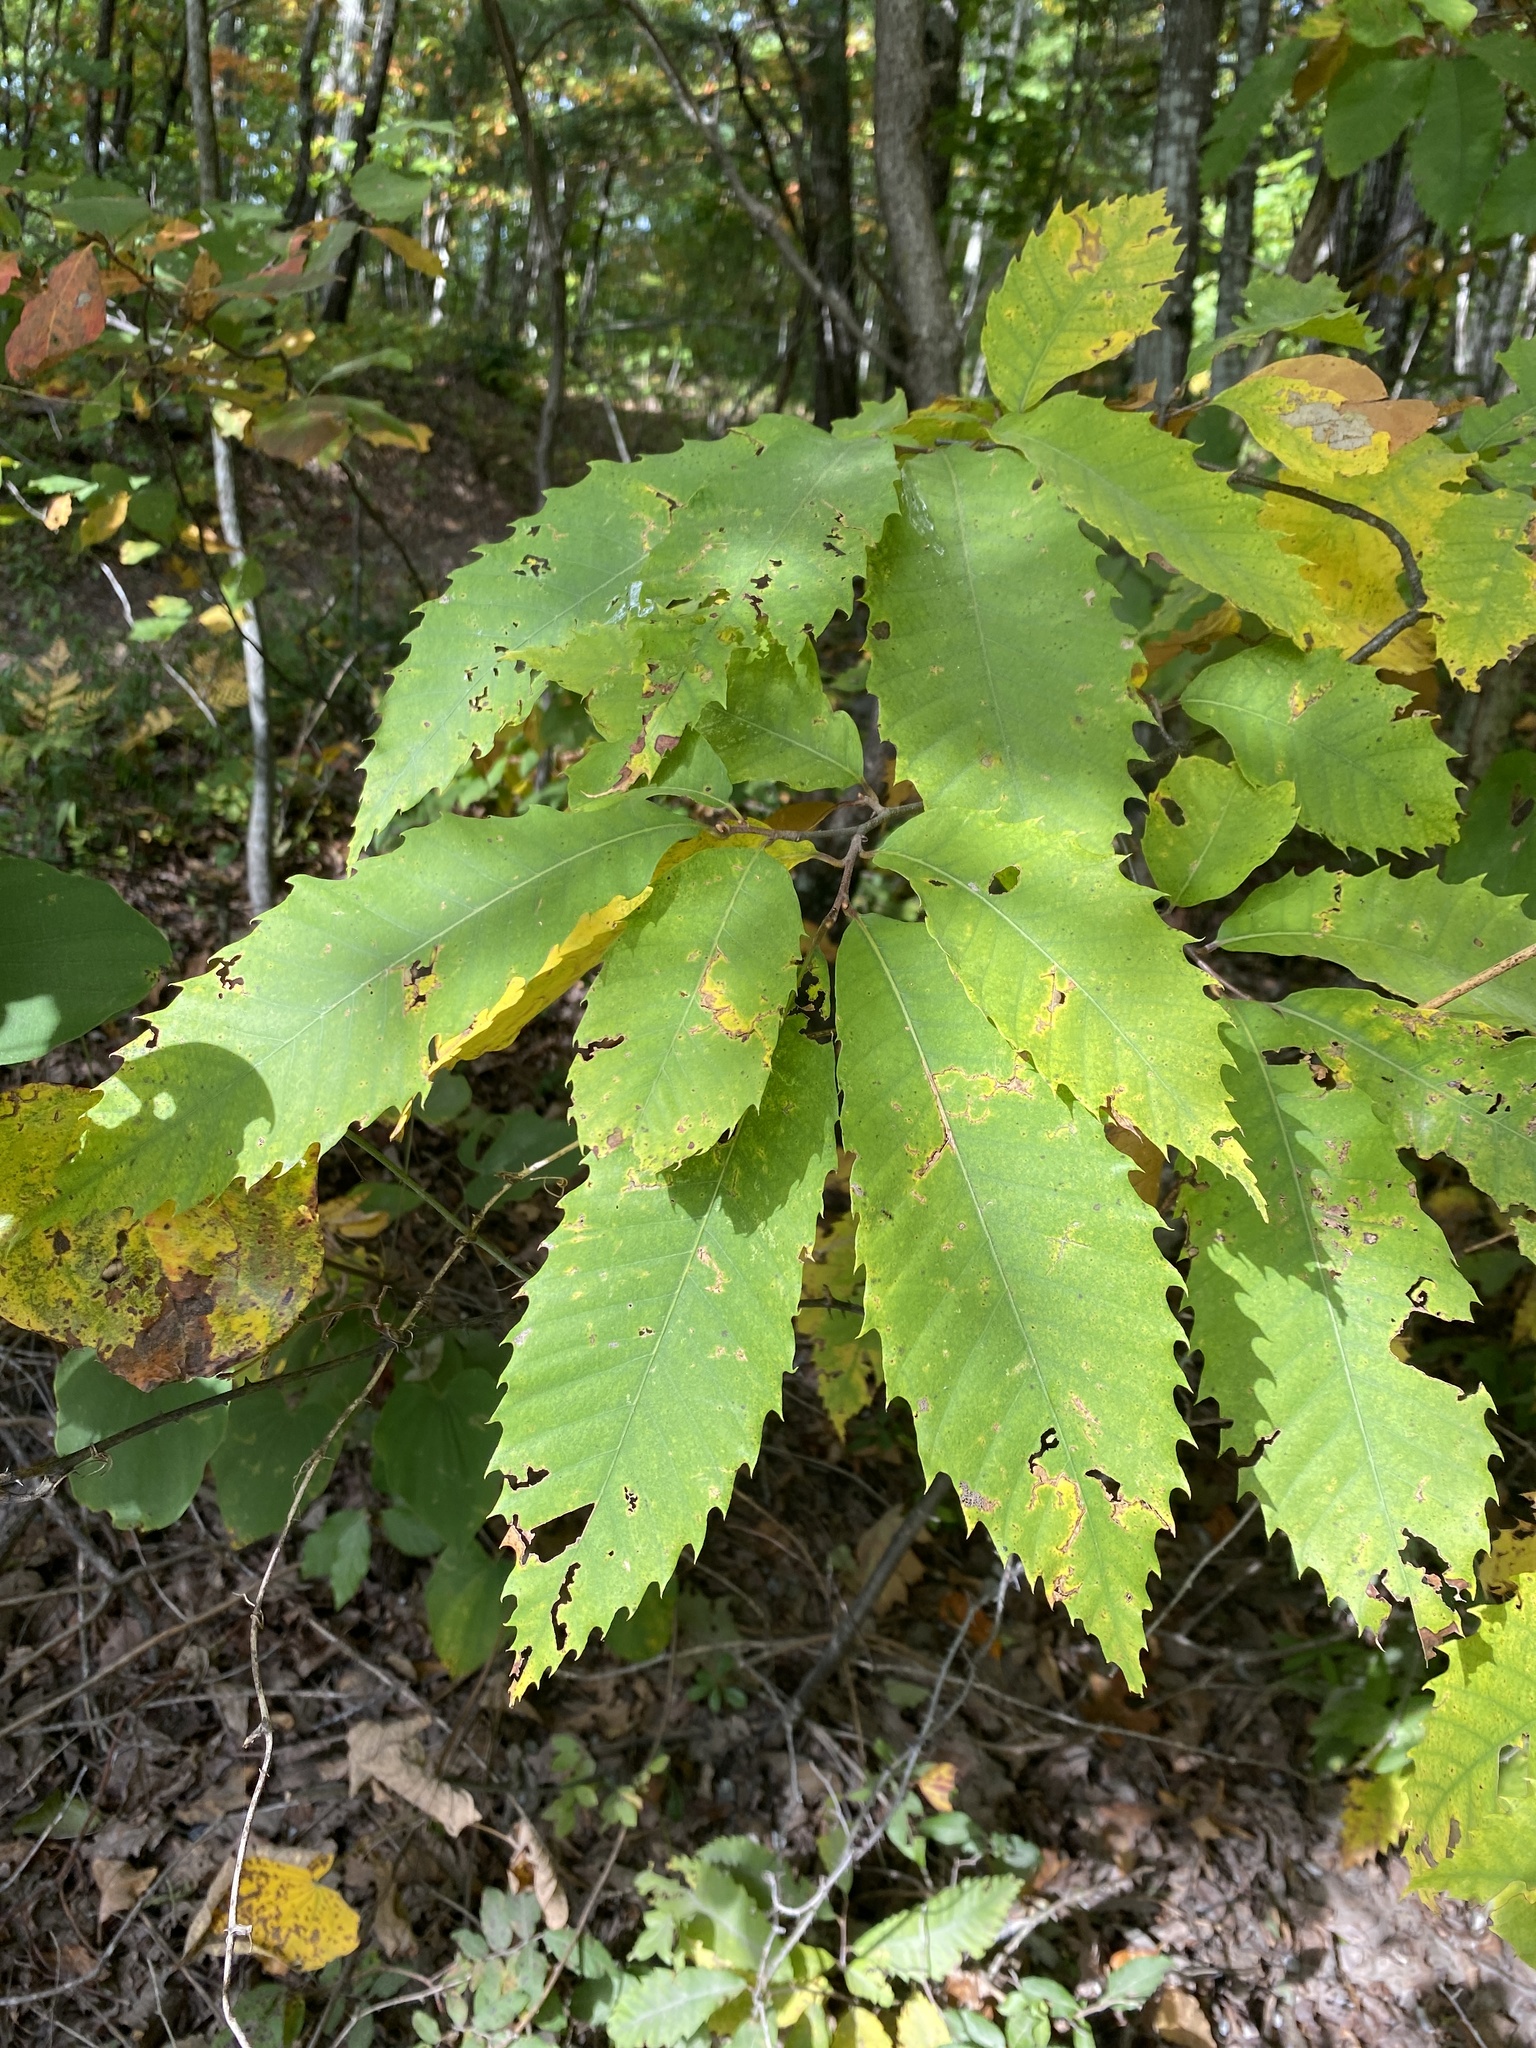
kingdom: Plantae
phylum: Tracheophyta
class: Magnoliopsida
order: Fagales
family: Fagaceae
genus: Castanea
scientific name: Castanea dentata
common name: American chestnut
